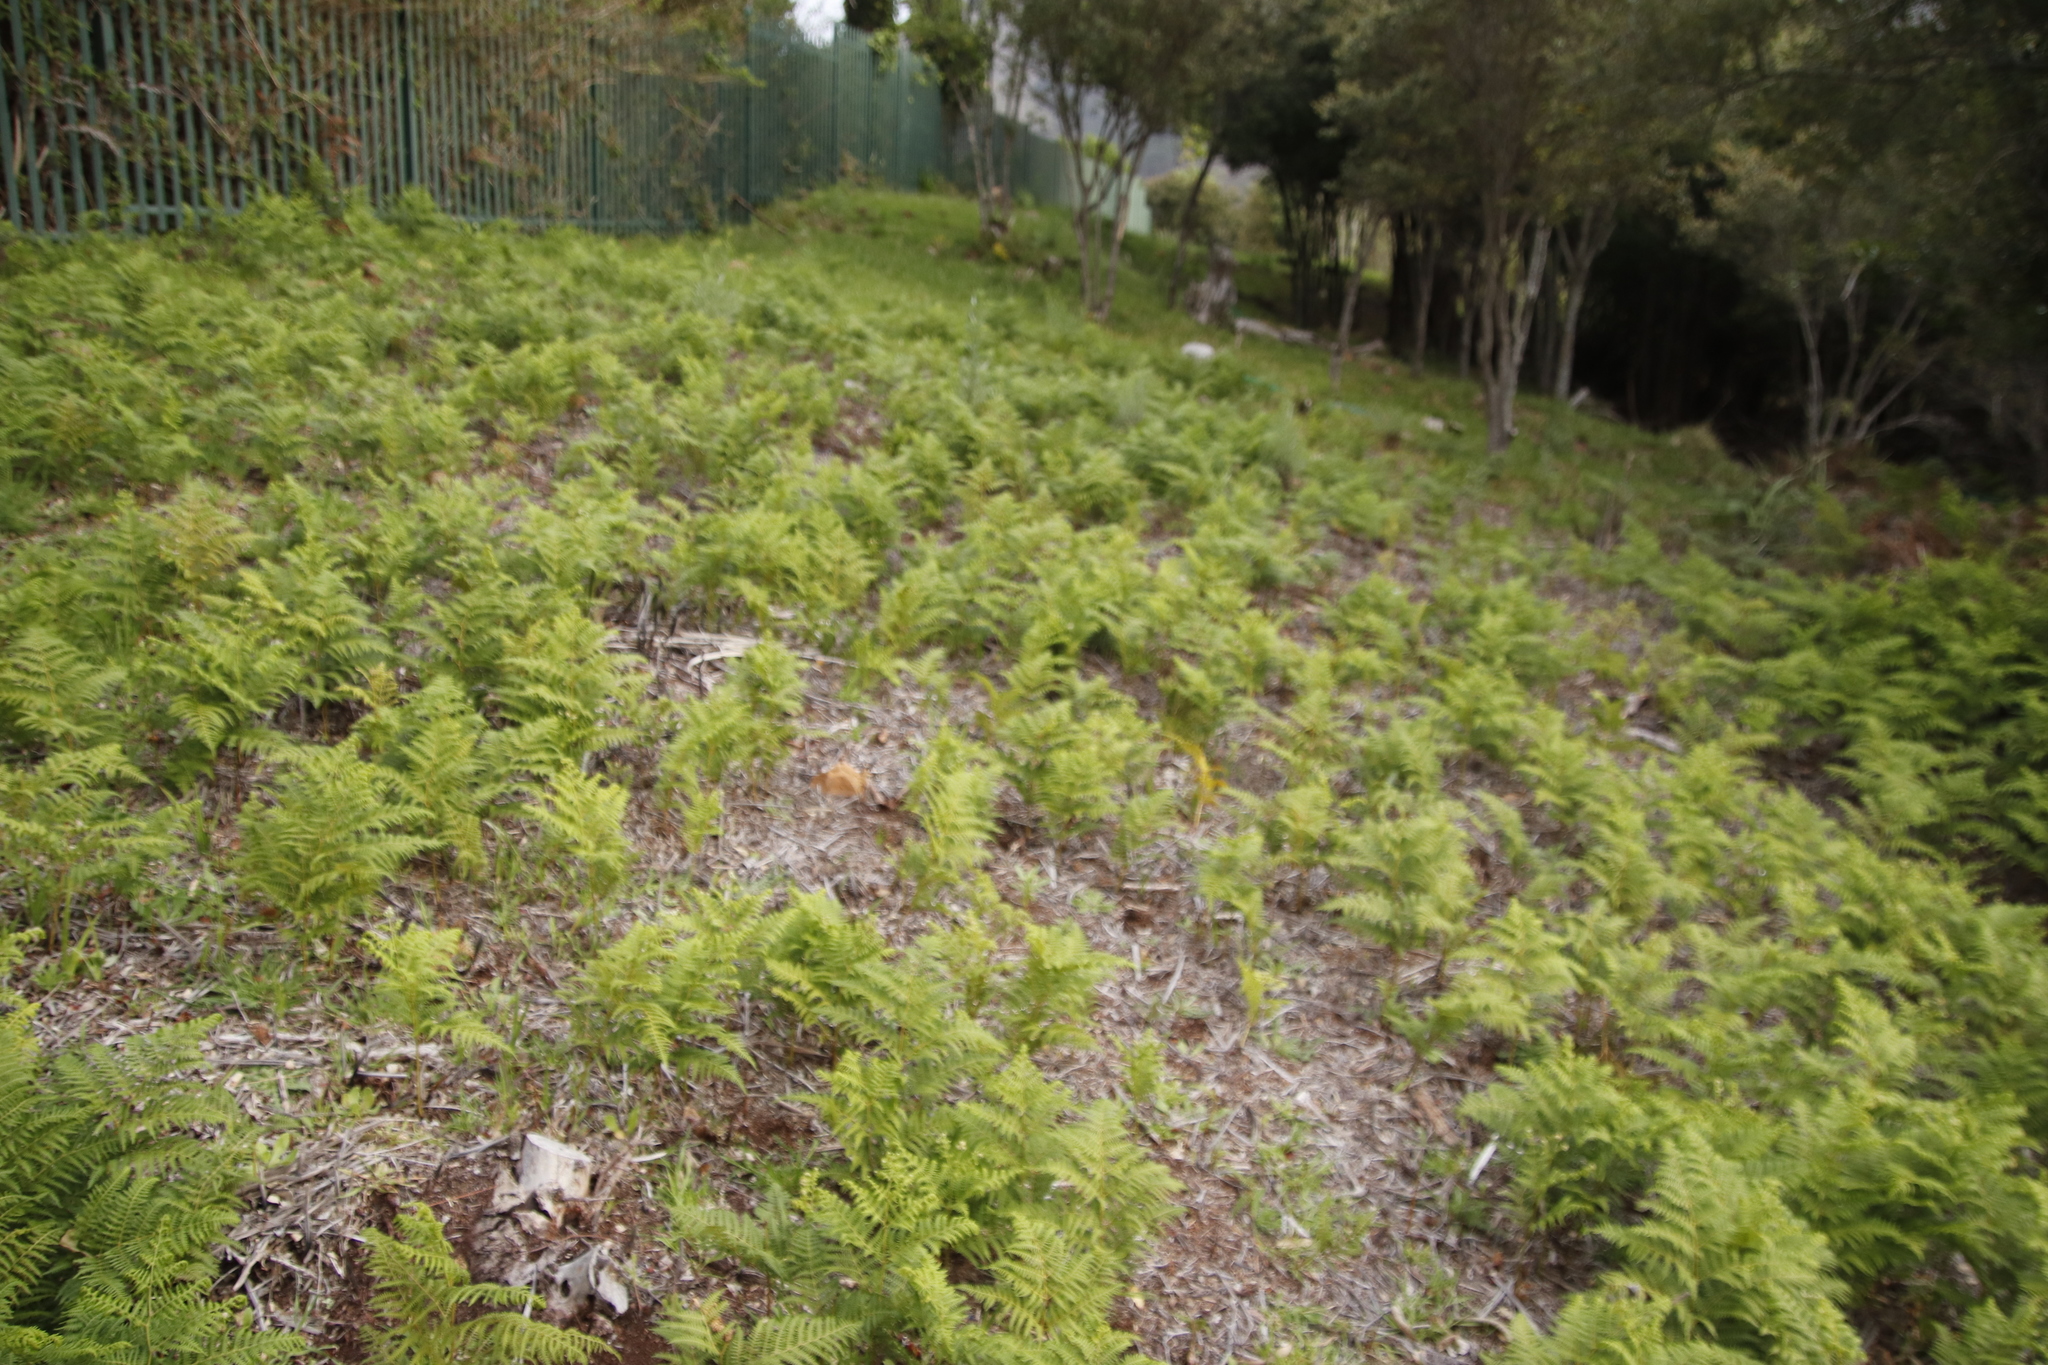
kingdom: Plantae
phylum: Tracheophyta
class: Polypodiopsida
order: Polypodiales
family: Dennstaedtiaceae
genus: Pteridium
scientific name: Pteridium aquilinum
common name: Bracken
